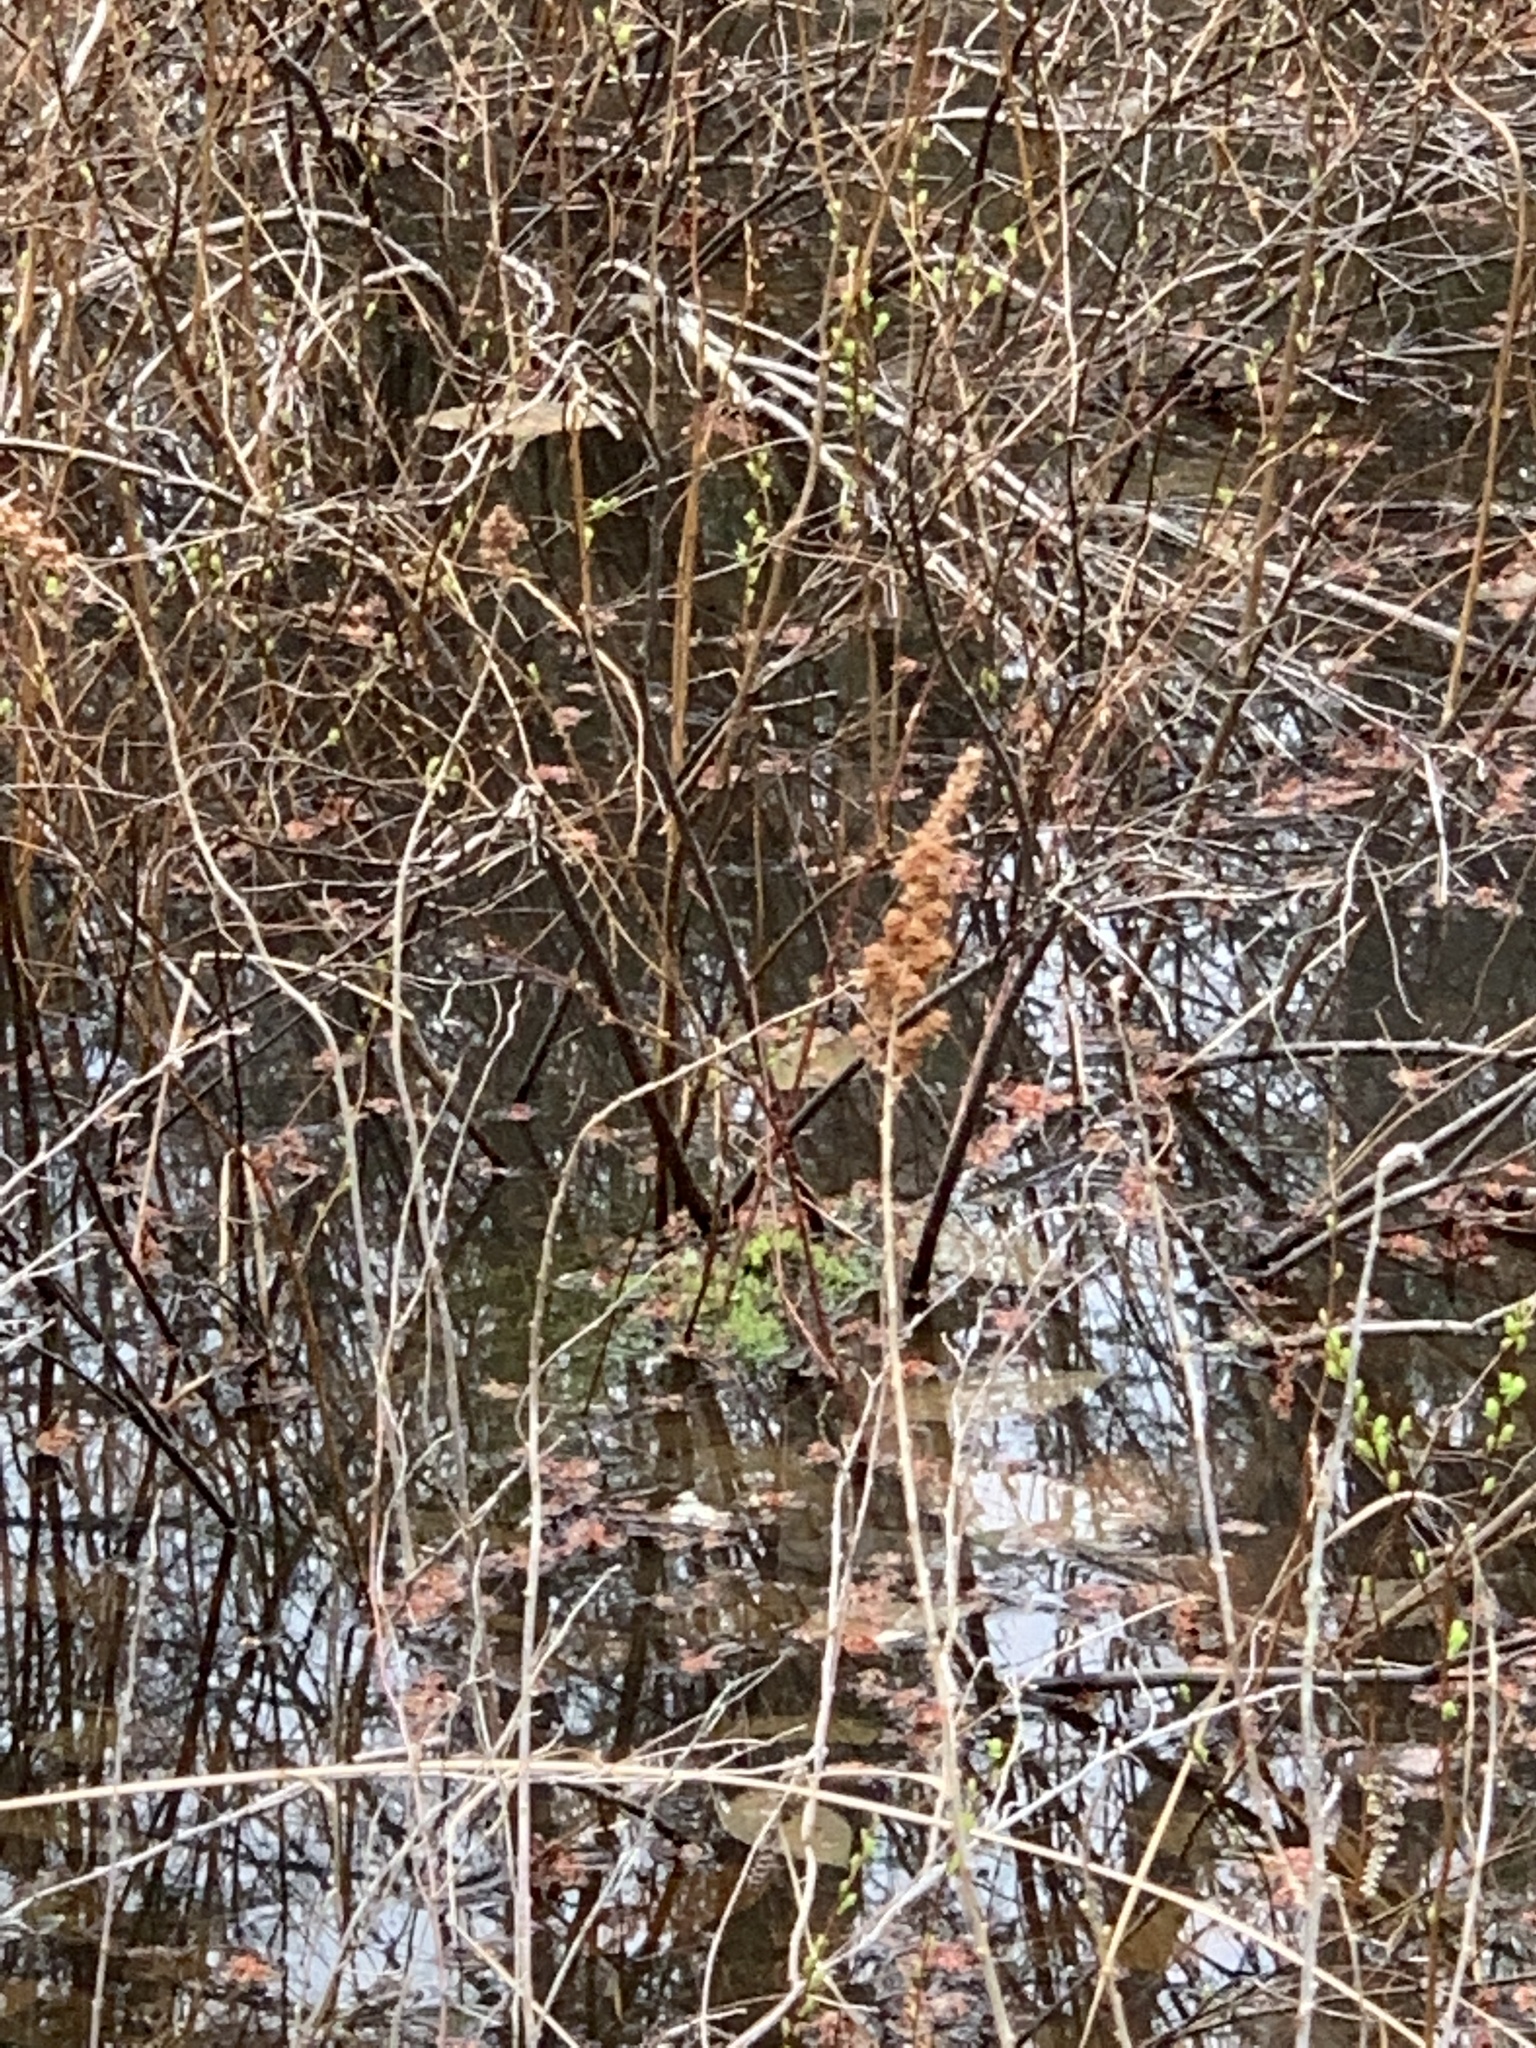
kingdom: Plantae
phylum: Tracheophyta
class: Magnoliopsida
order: Rosales
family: Rosaceae
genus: Spiraea
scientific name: Spiraea tomentosa
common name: Hardhack
